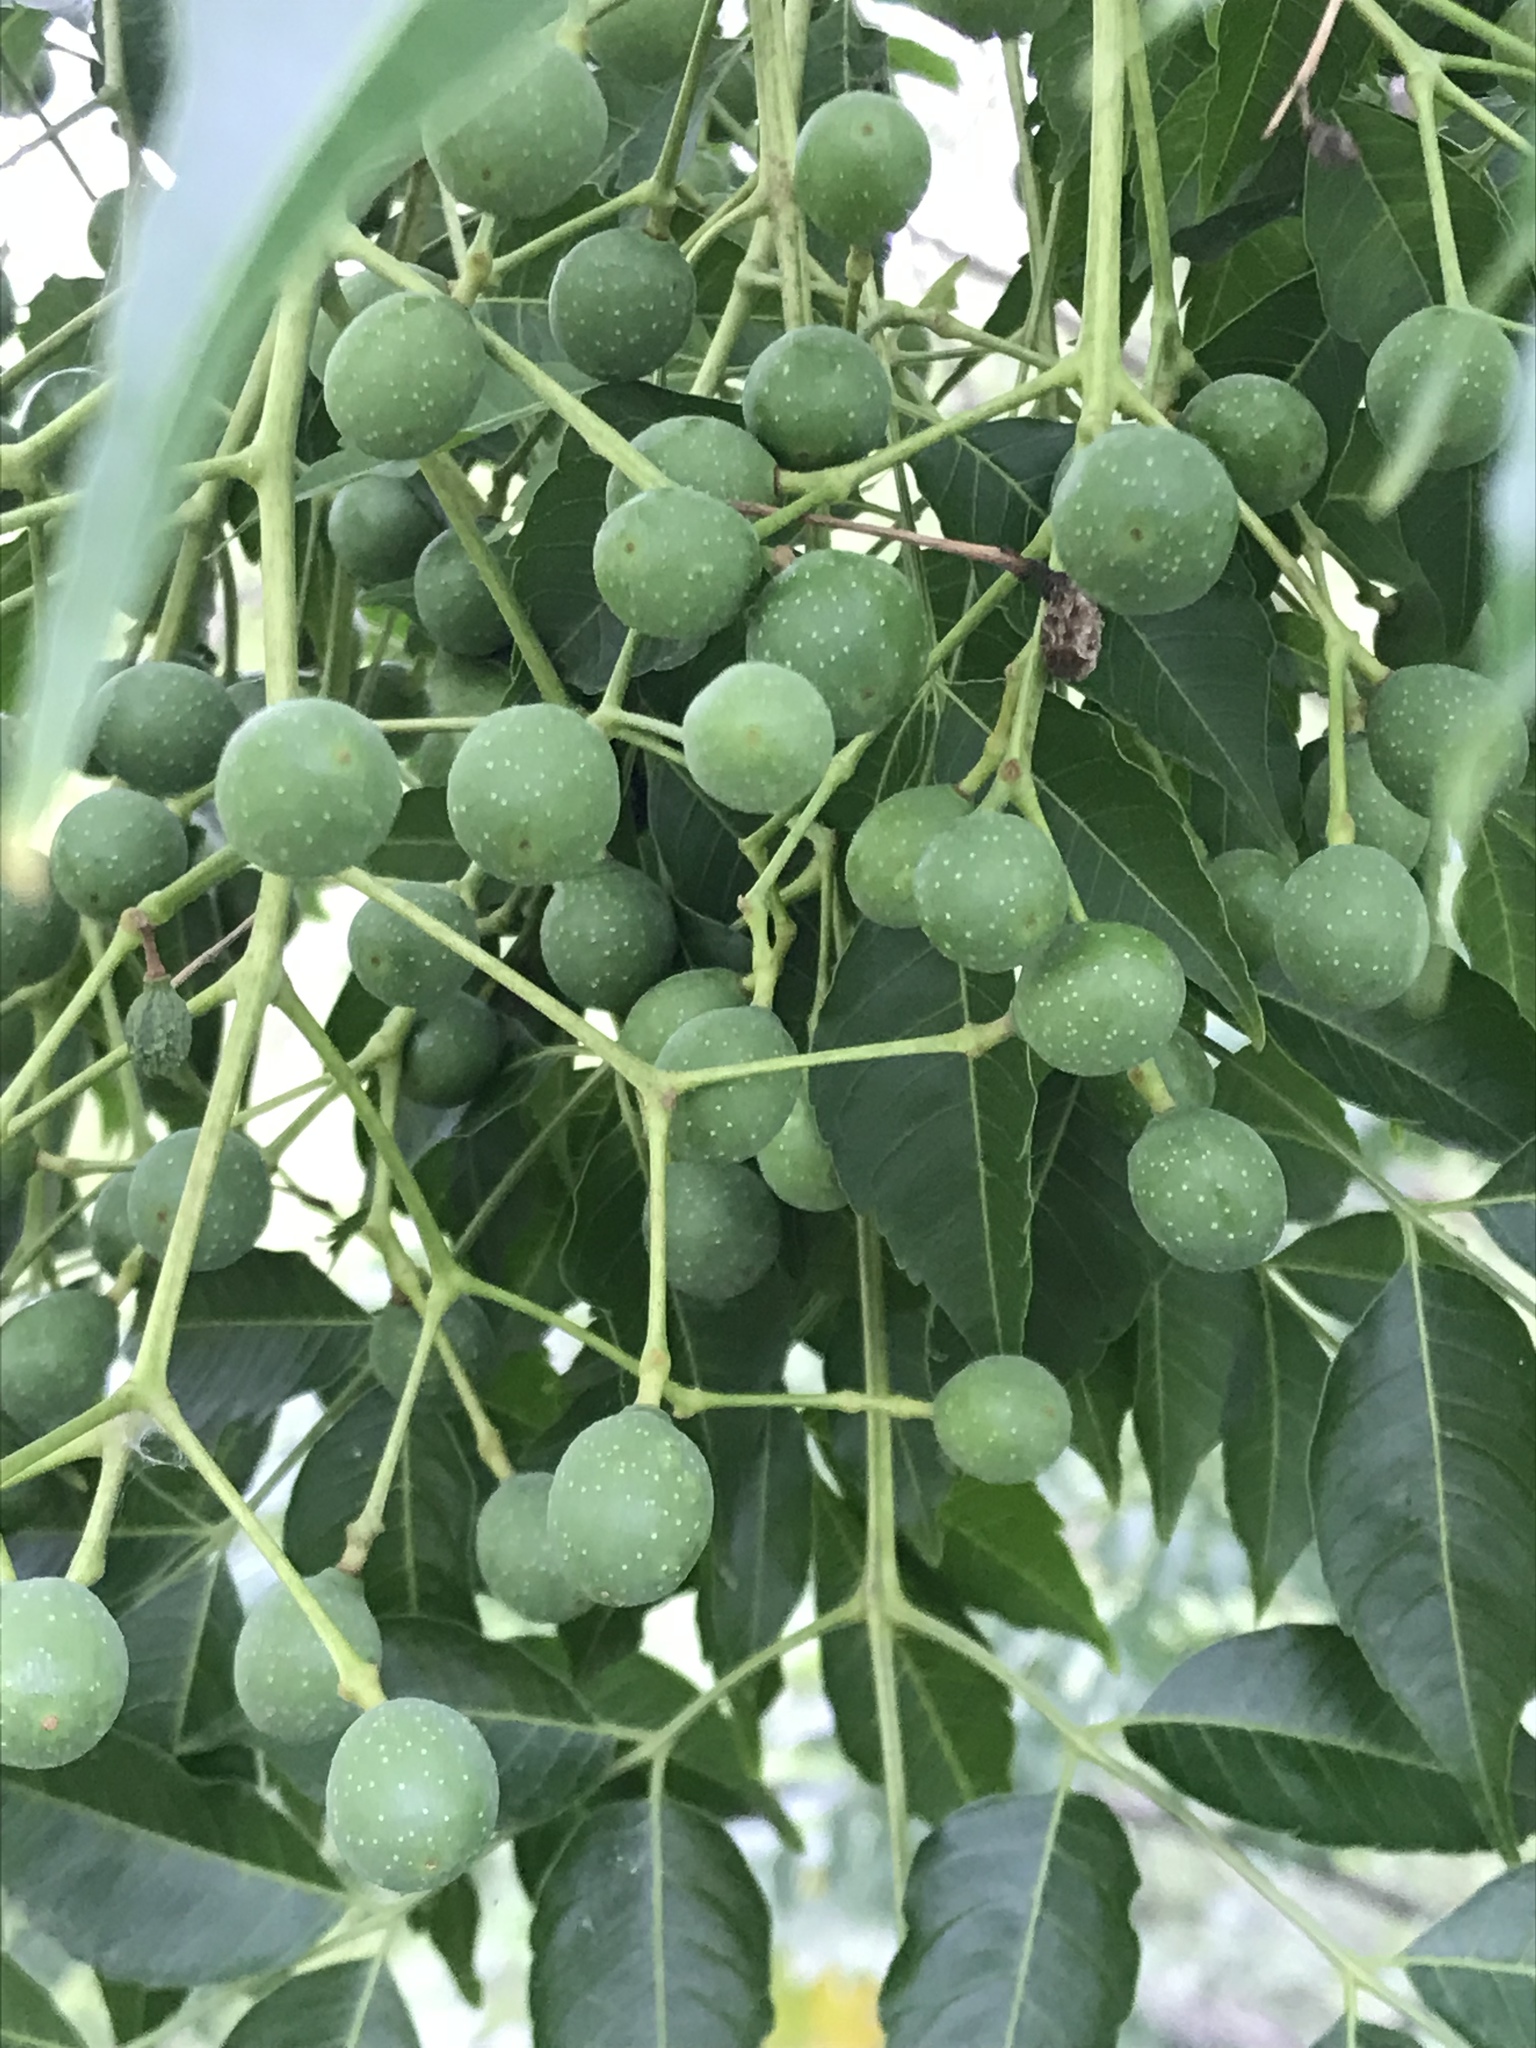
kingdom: Plantae
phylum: Tracheophyta
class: Magnoliopsida
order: Sapindales
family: Sapindaceae
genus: Sapindus
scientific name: Sapindus drummondii
